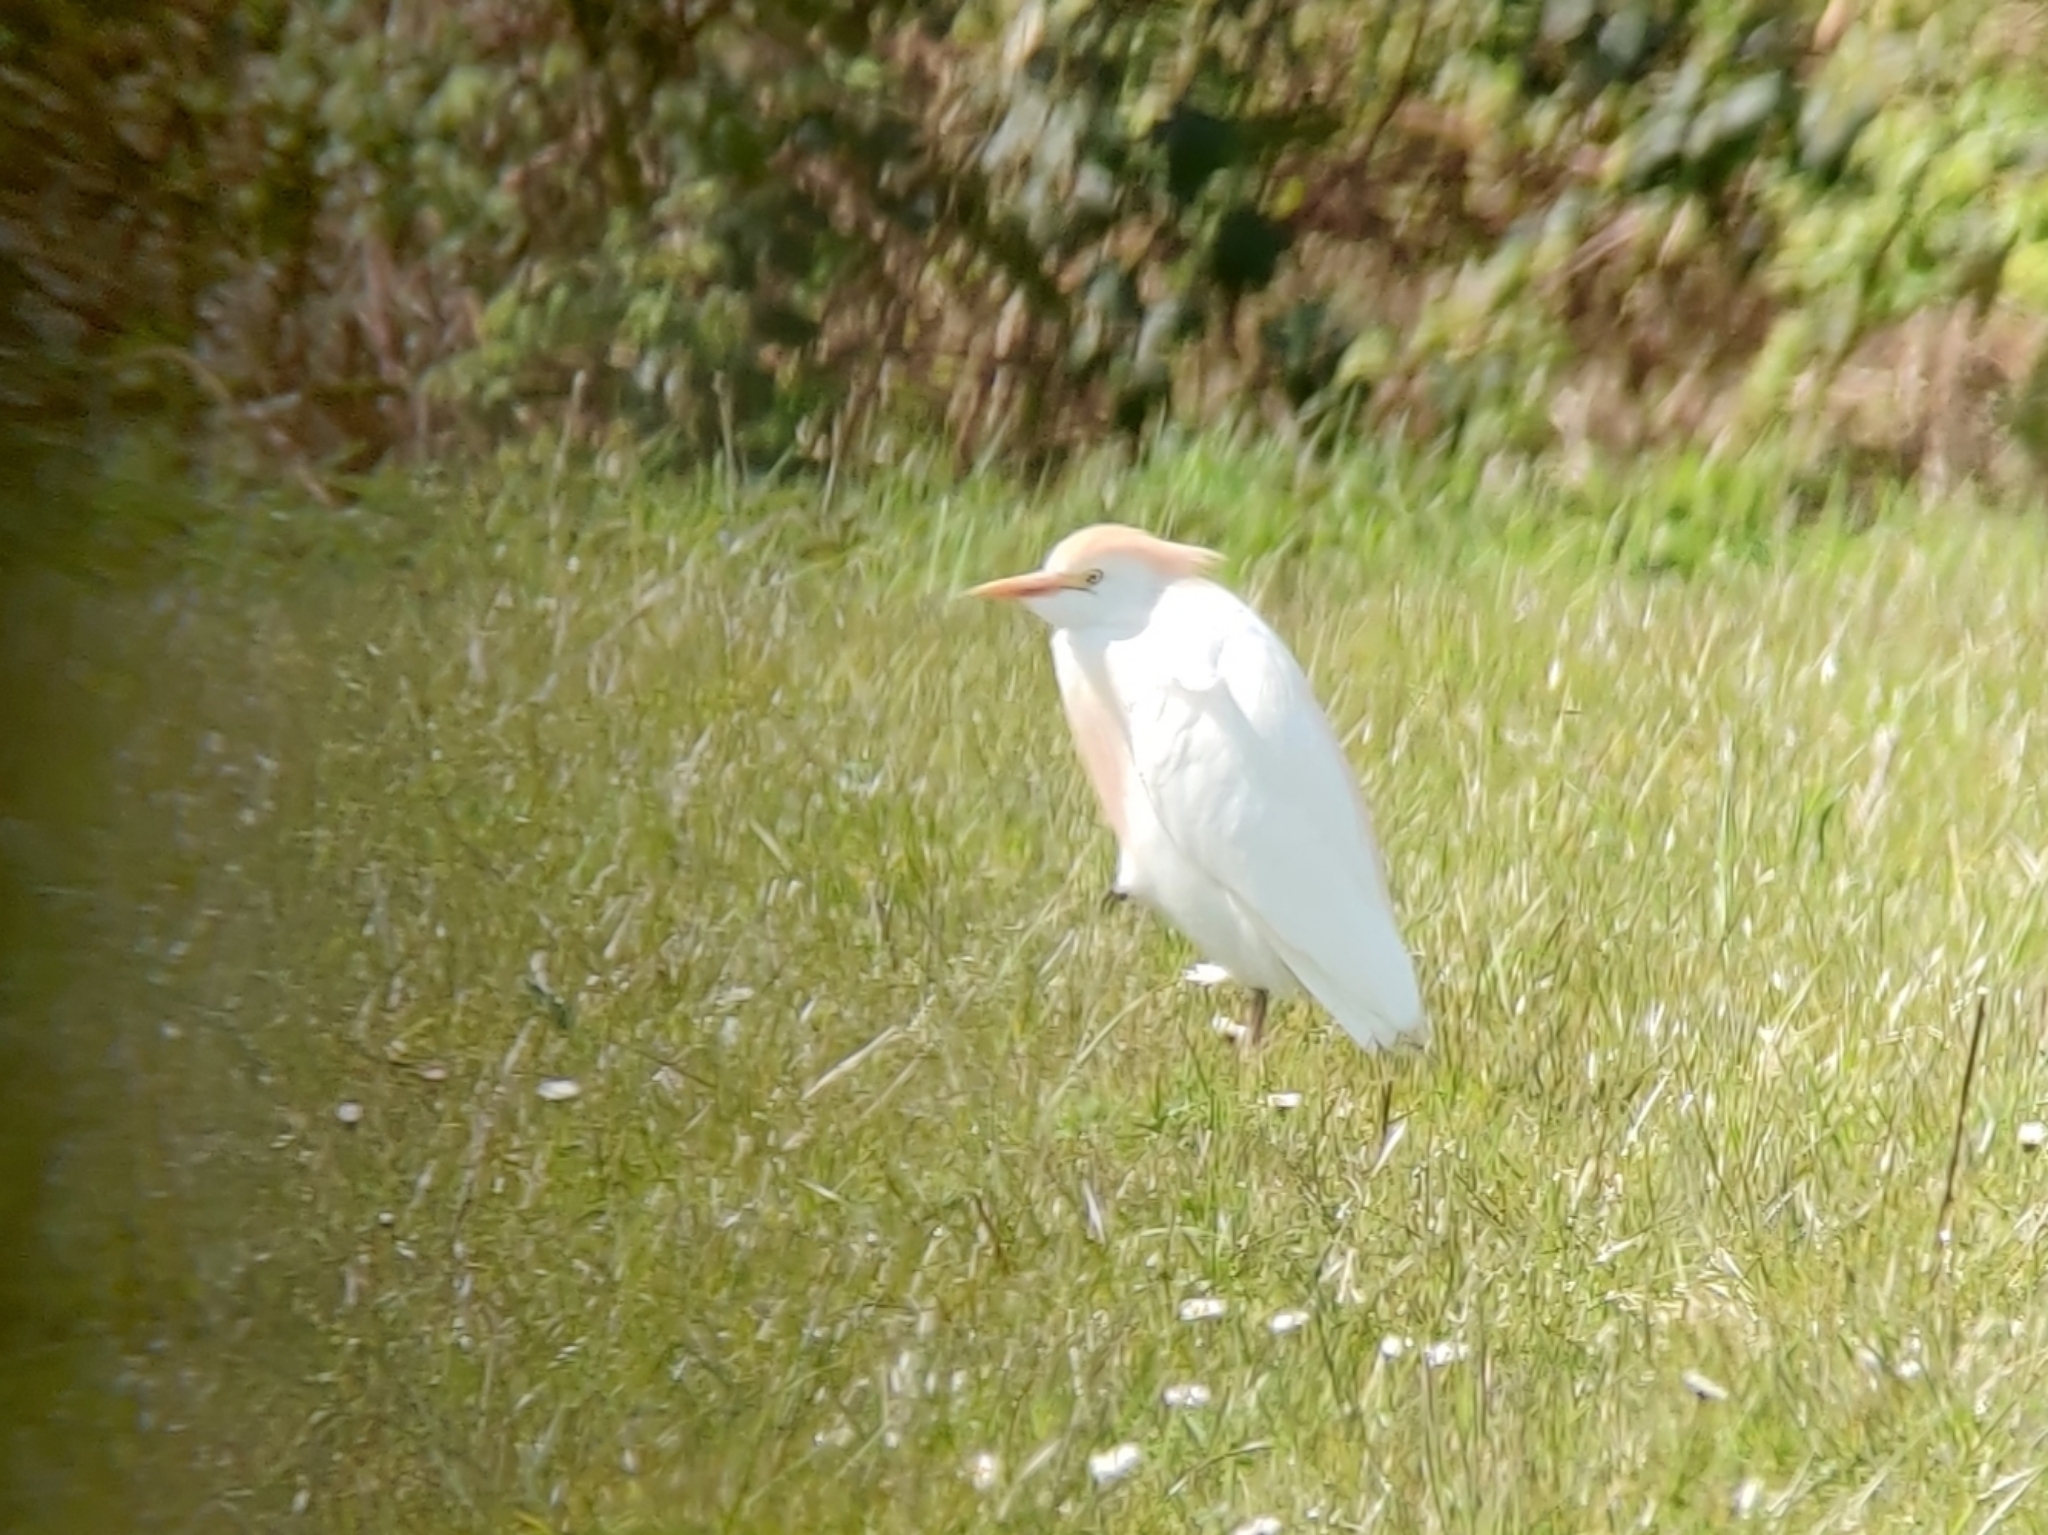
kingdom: Animalia
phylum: Chordata
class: Aves
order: Pelecaniformes
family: Ardeidae
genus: Bubulcus
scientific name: Bubulcus ibis
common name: Cattle egret
